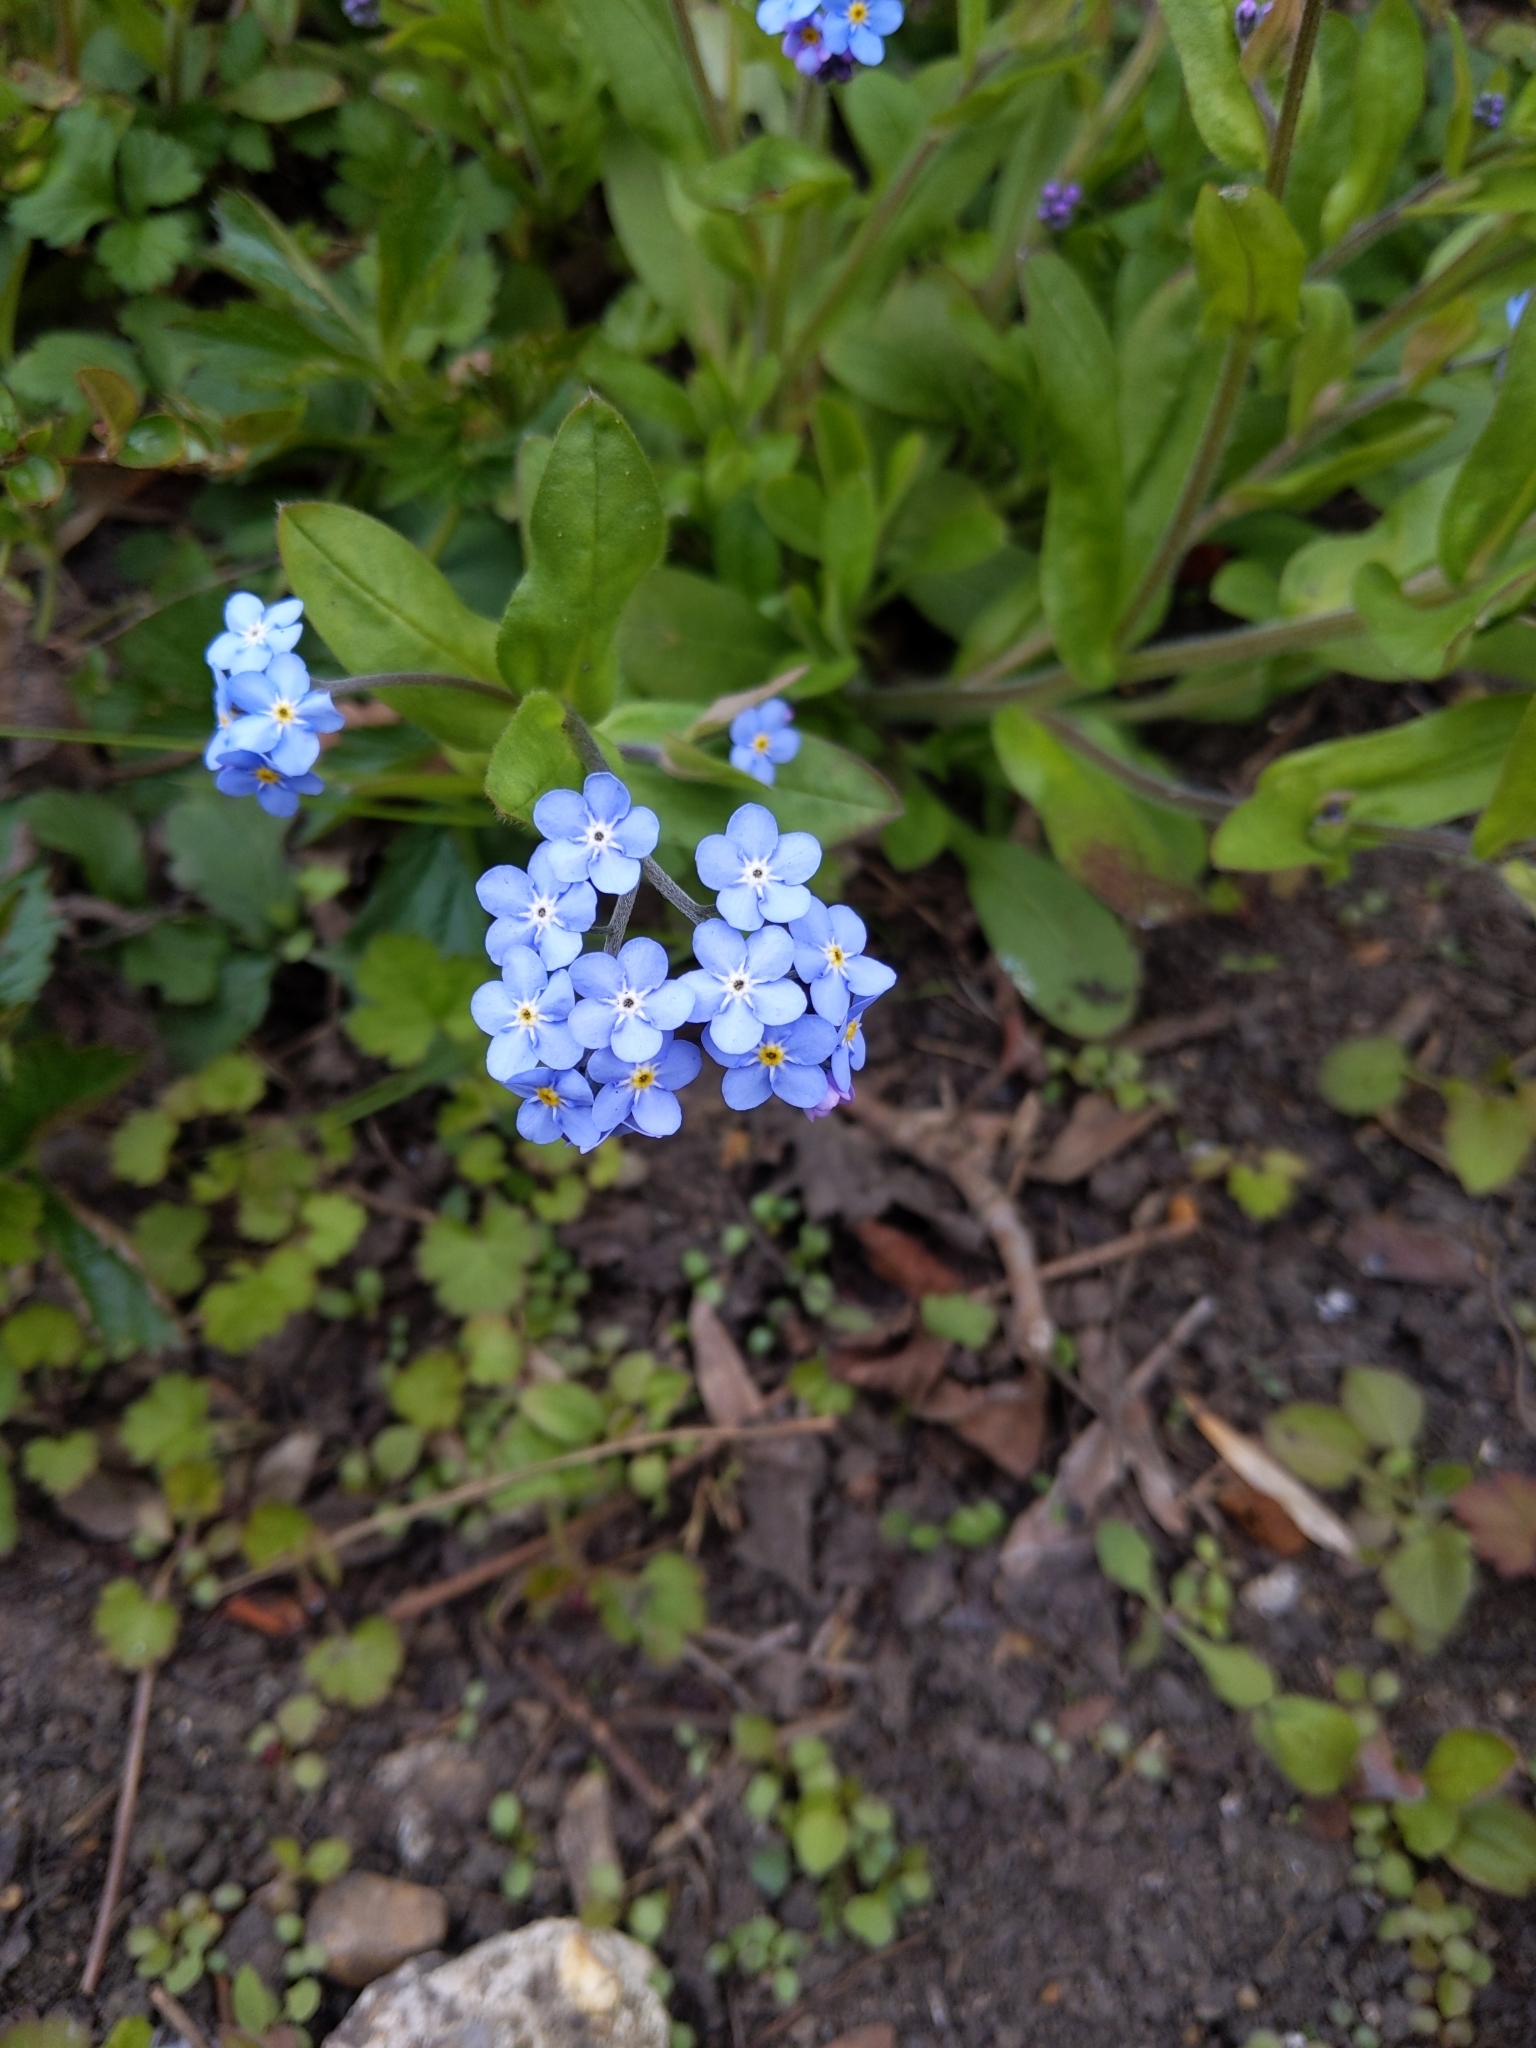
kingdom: Plantae
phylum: Tracheophyta
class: Magnoliopsida
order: Boraginales
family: Boraginaceae
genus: Myosotis
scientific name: Myosotis sylvatica
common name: Wood forget-me-not
